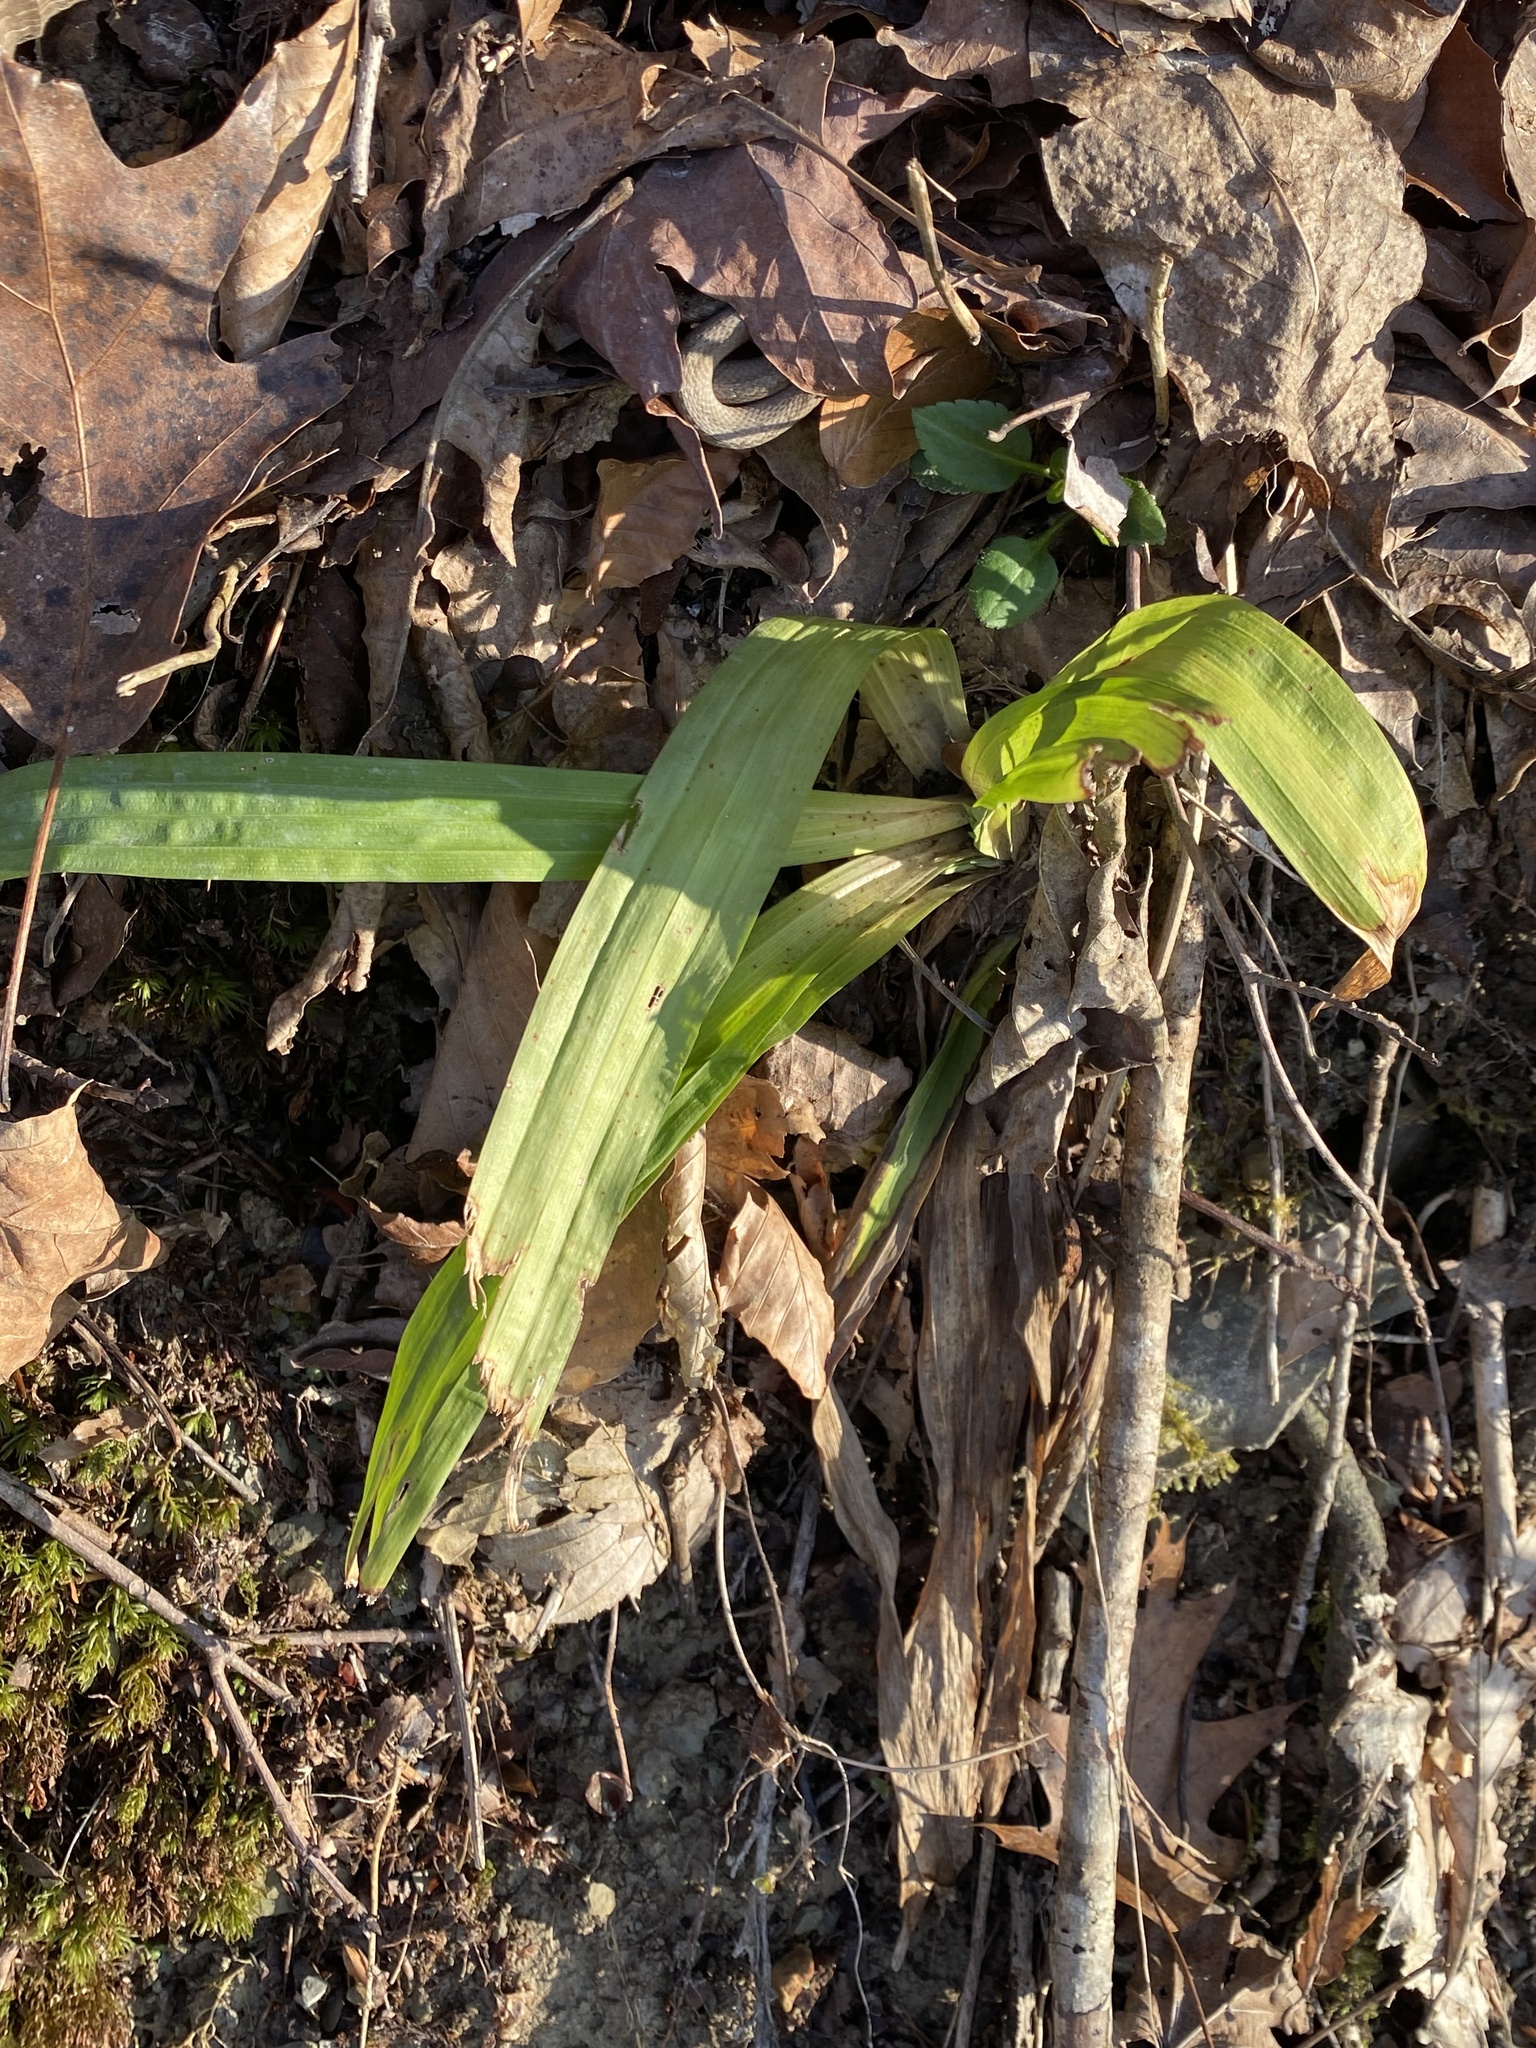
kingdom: Plantae
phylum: Tracheophyta
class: Liliopsida
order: Poales
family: Cyperaceae
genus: Carex
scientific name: Carex plantaginea
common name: Plantain-leaved sedge
